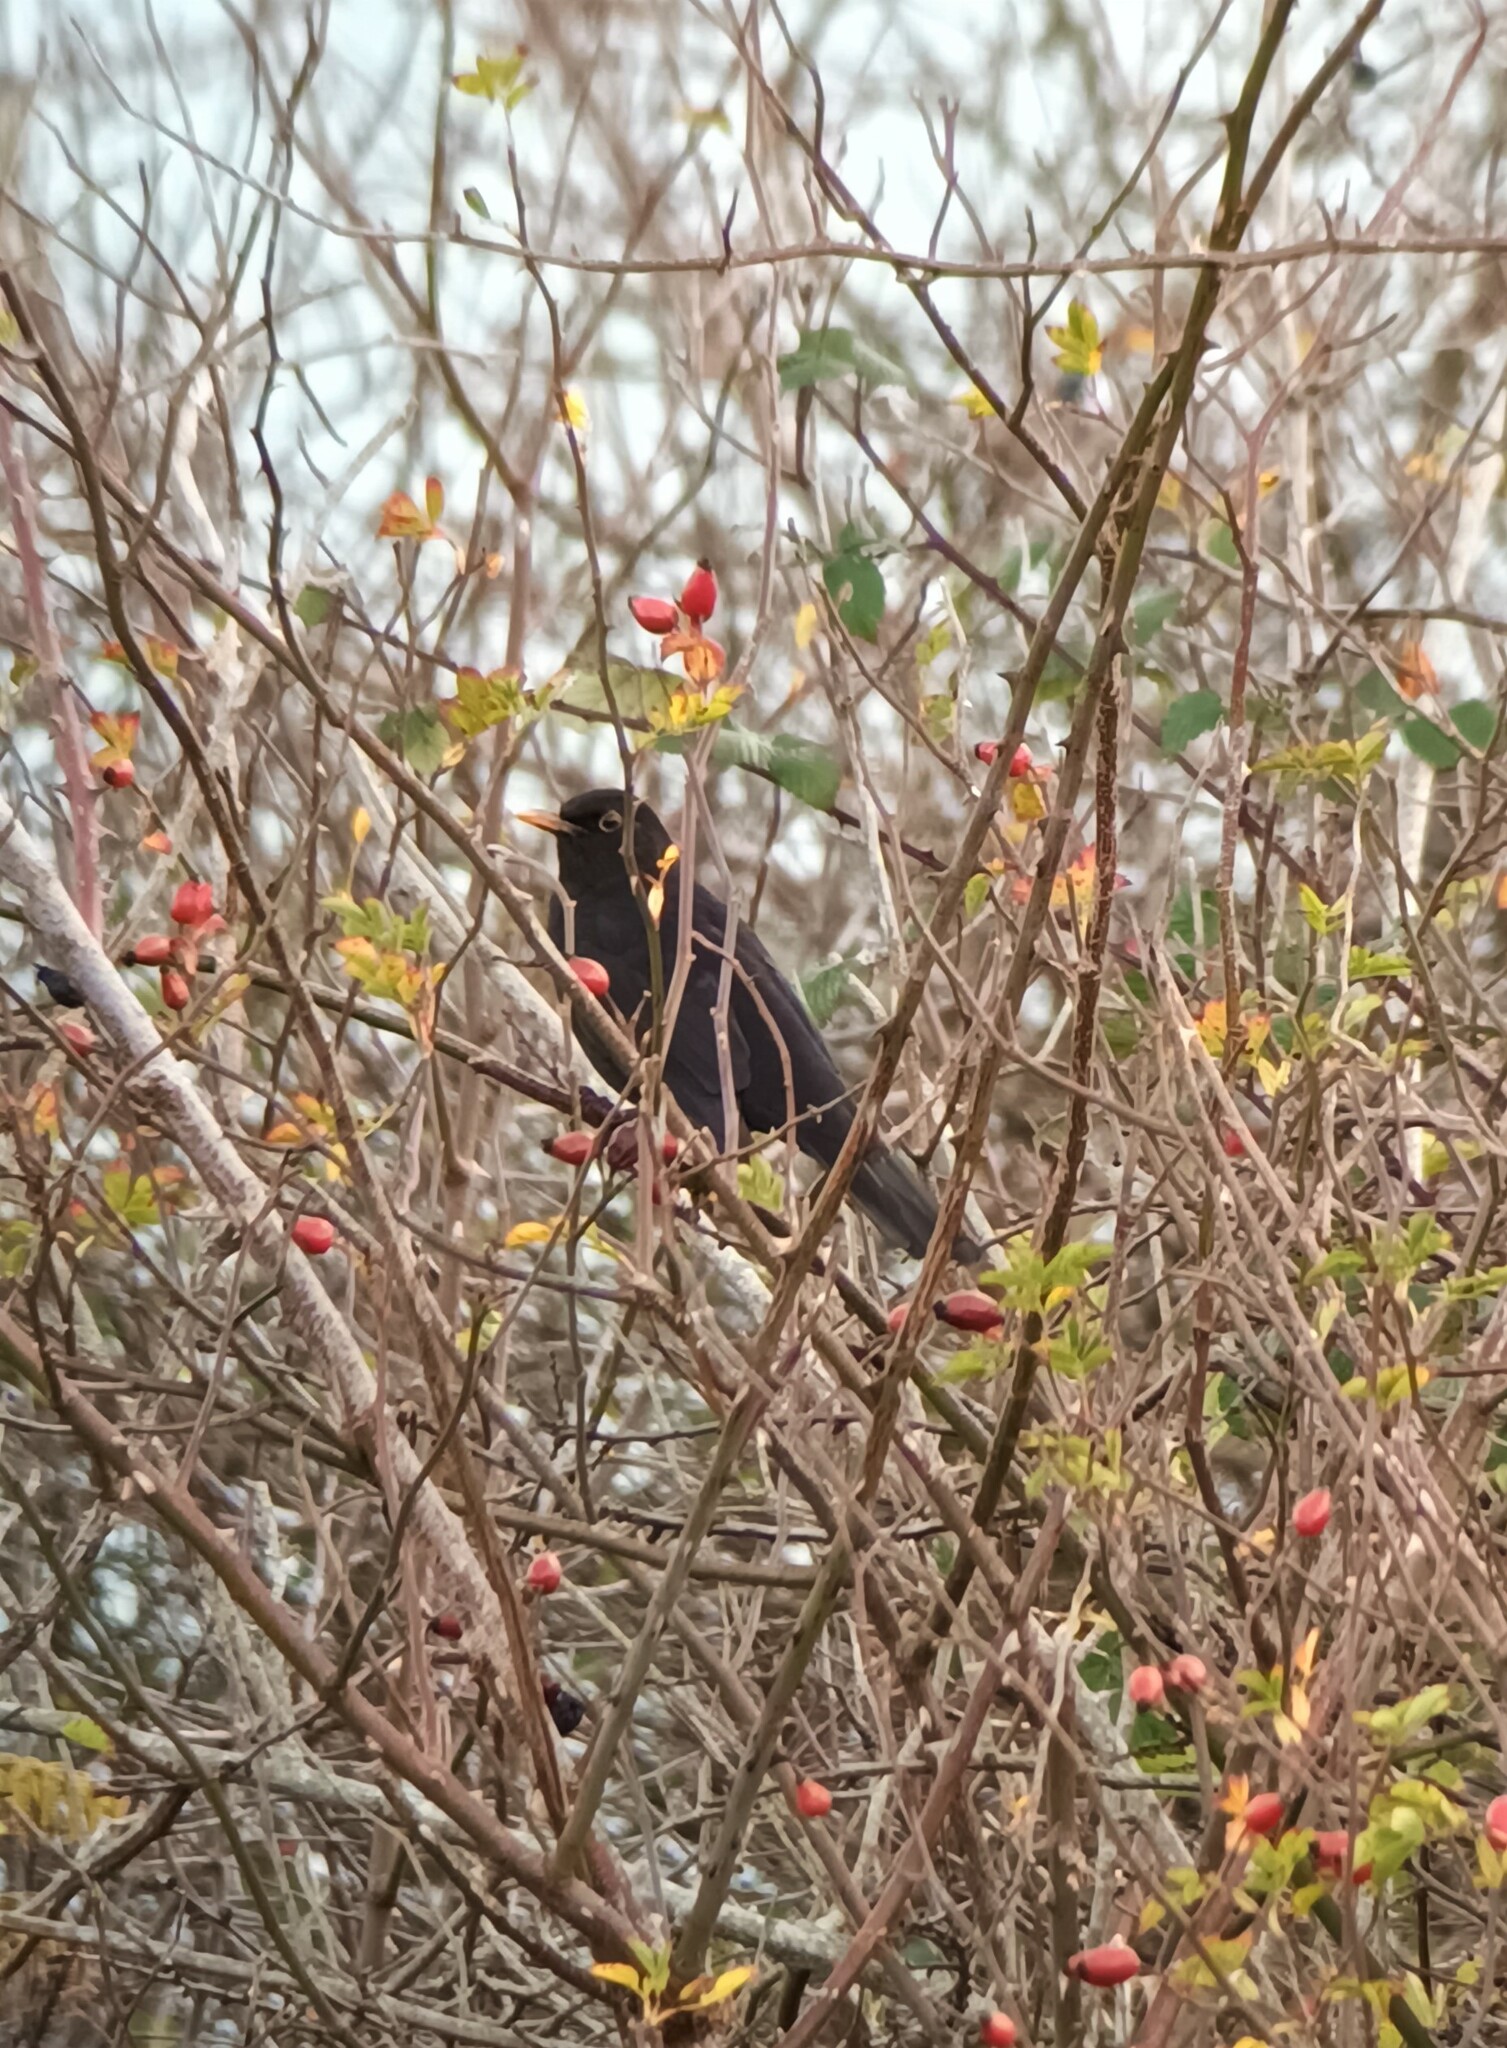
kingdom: Animalia
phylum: Chordata
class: Aves
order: Passeriformes
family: Turdidae
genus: Turdus
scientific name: Turdus merula
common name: Common blackbird
